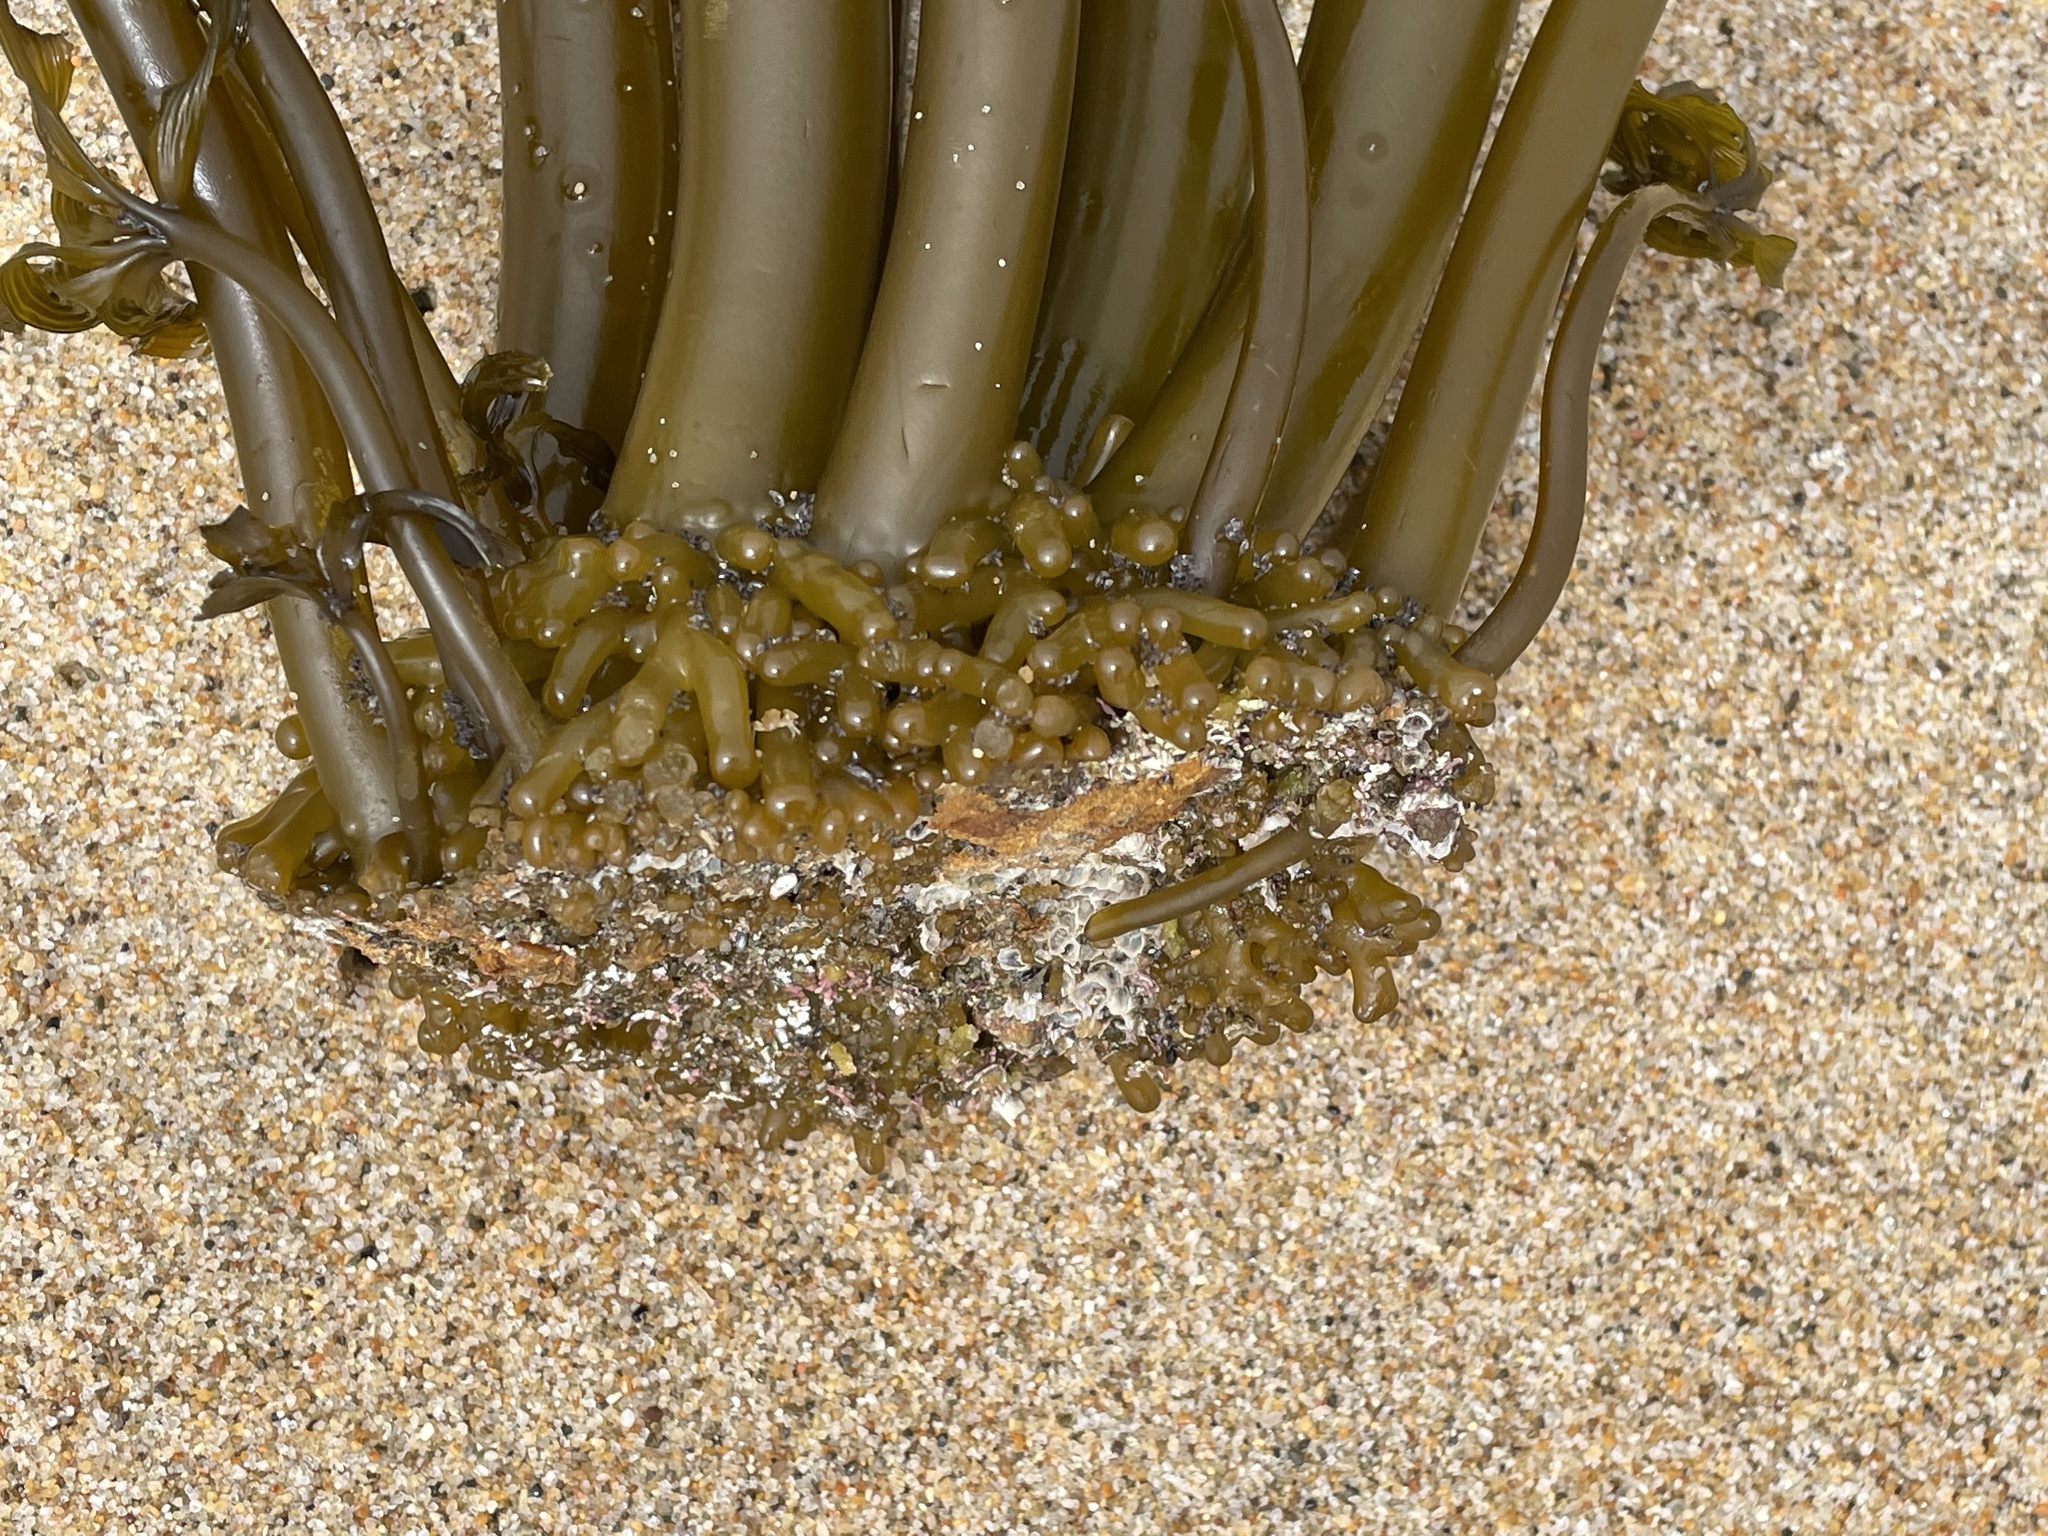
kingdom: Chromista
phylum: Ochrophyta
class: Phaeophyceae
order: Laminariales
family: Laminariaceae
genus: Postelsia
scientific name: Postelsia palmiformis
